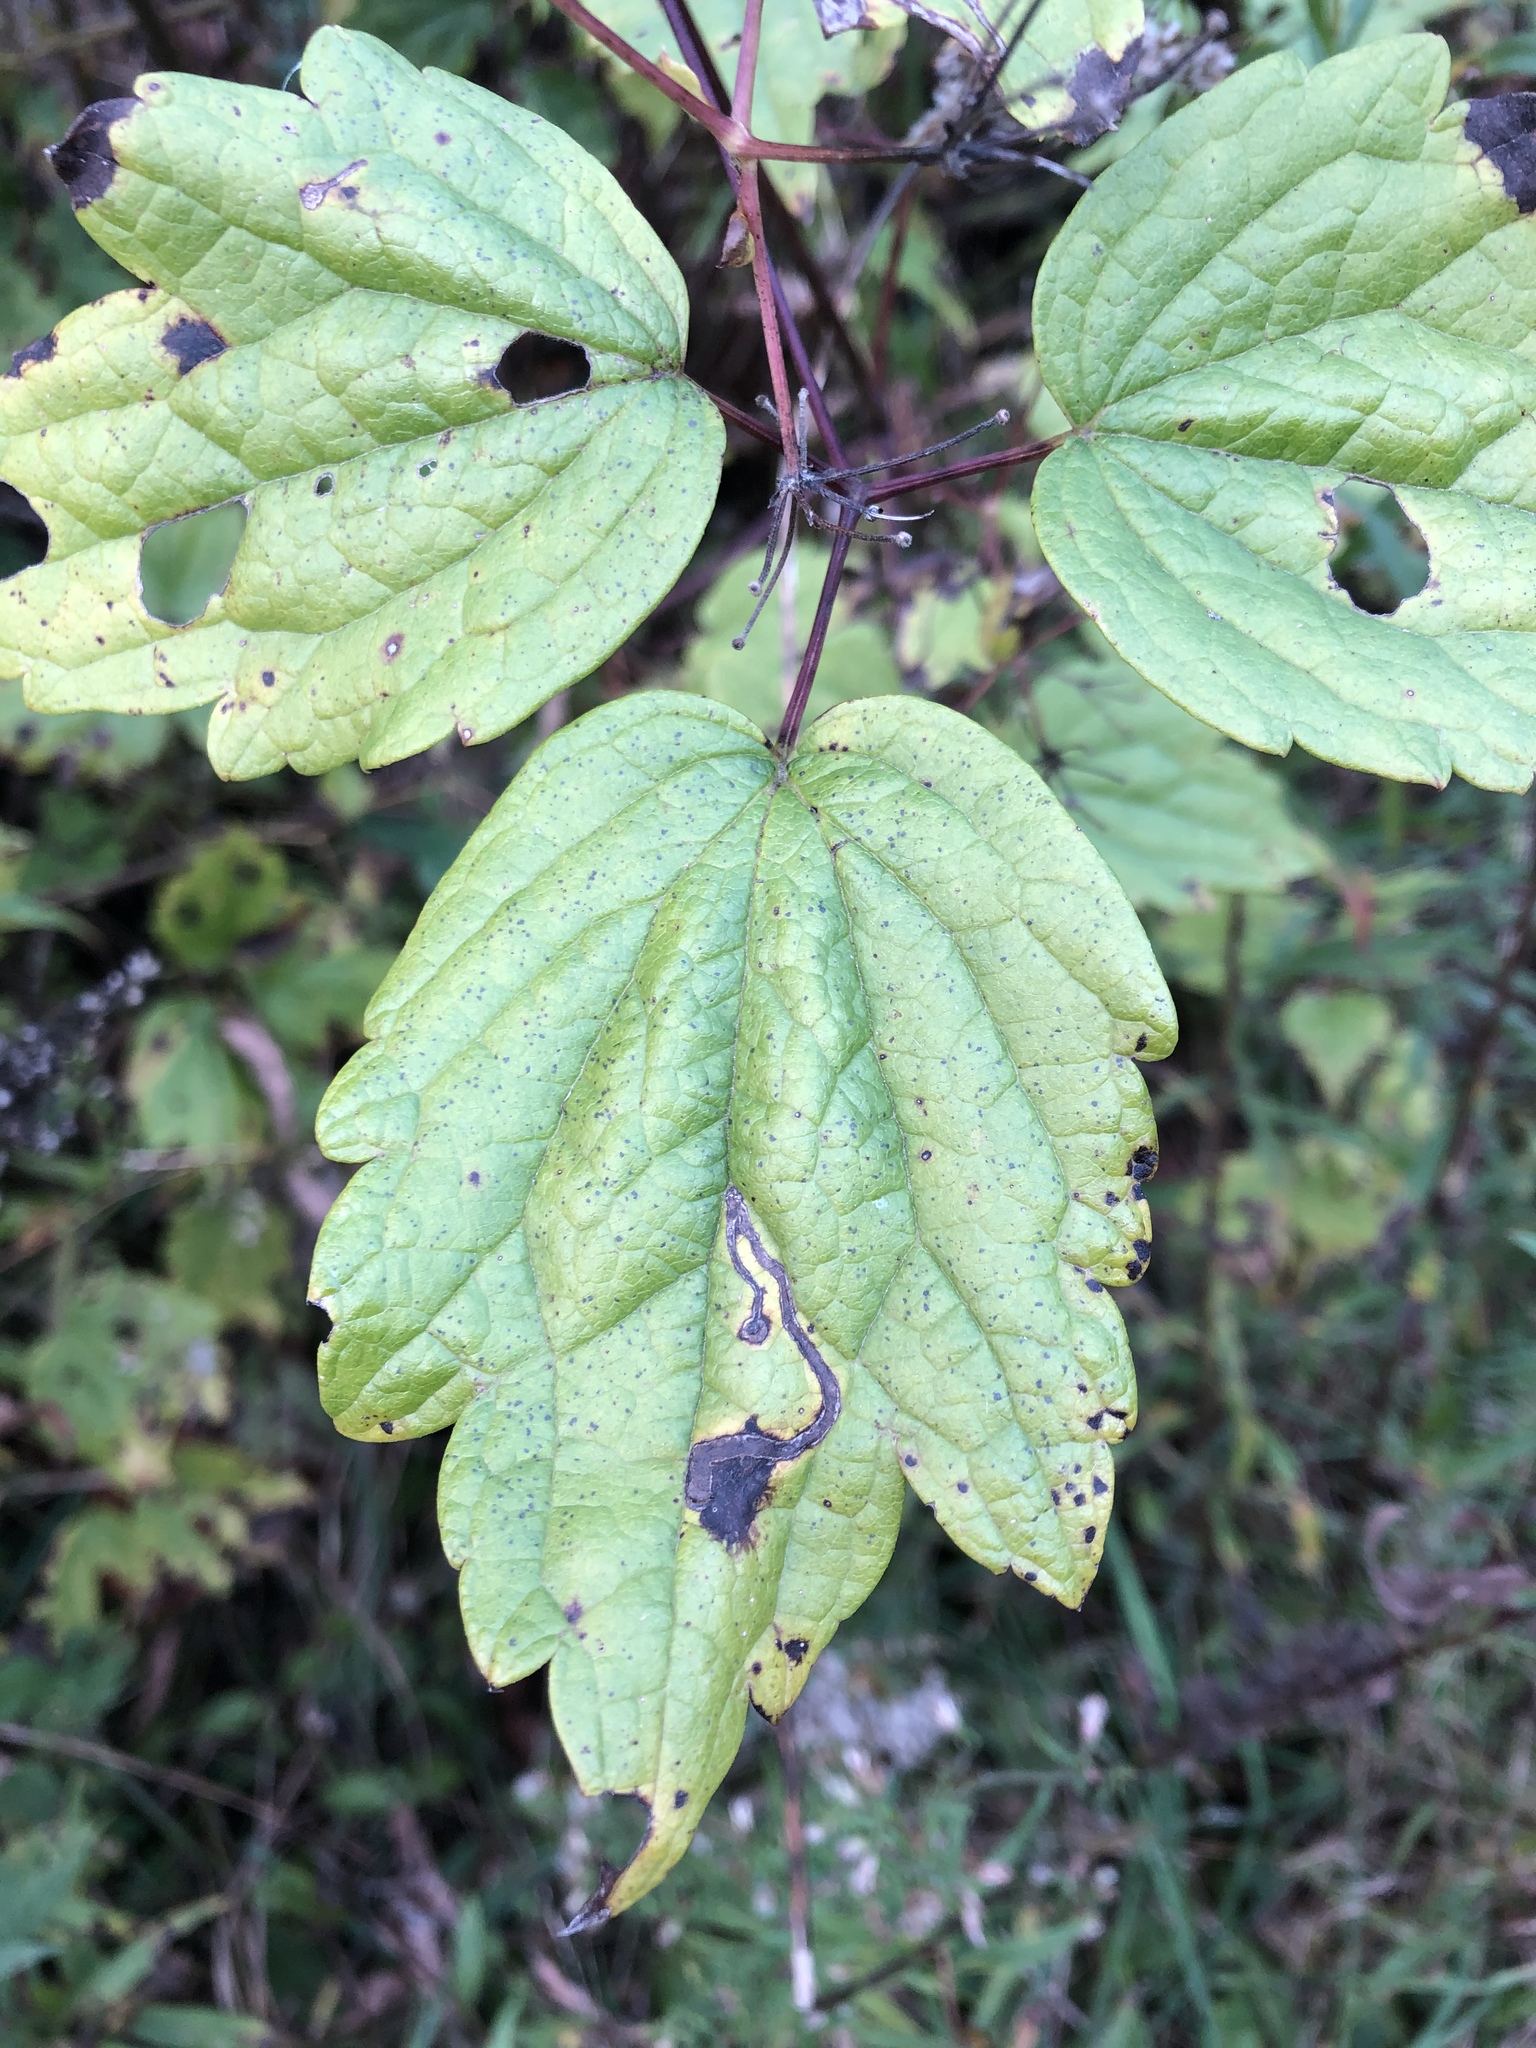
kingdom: Plantae
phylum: Tracheophyta
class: Magnoliopsida
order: Ranunculales
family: Ranunculaceae
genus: Clematis
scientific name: Clematis virginiana
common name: Virgin's-bower
